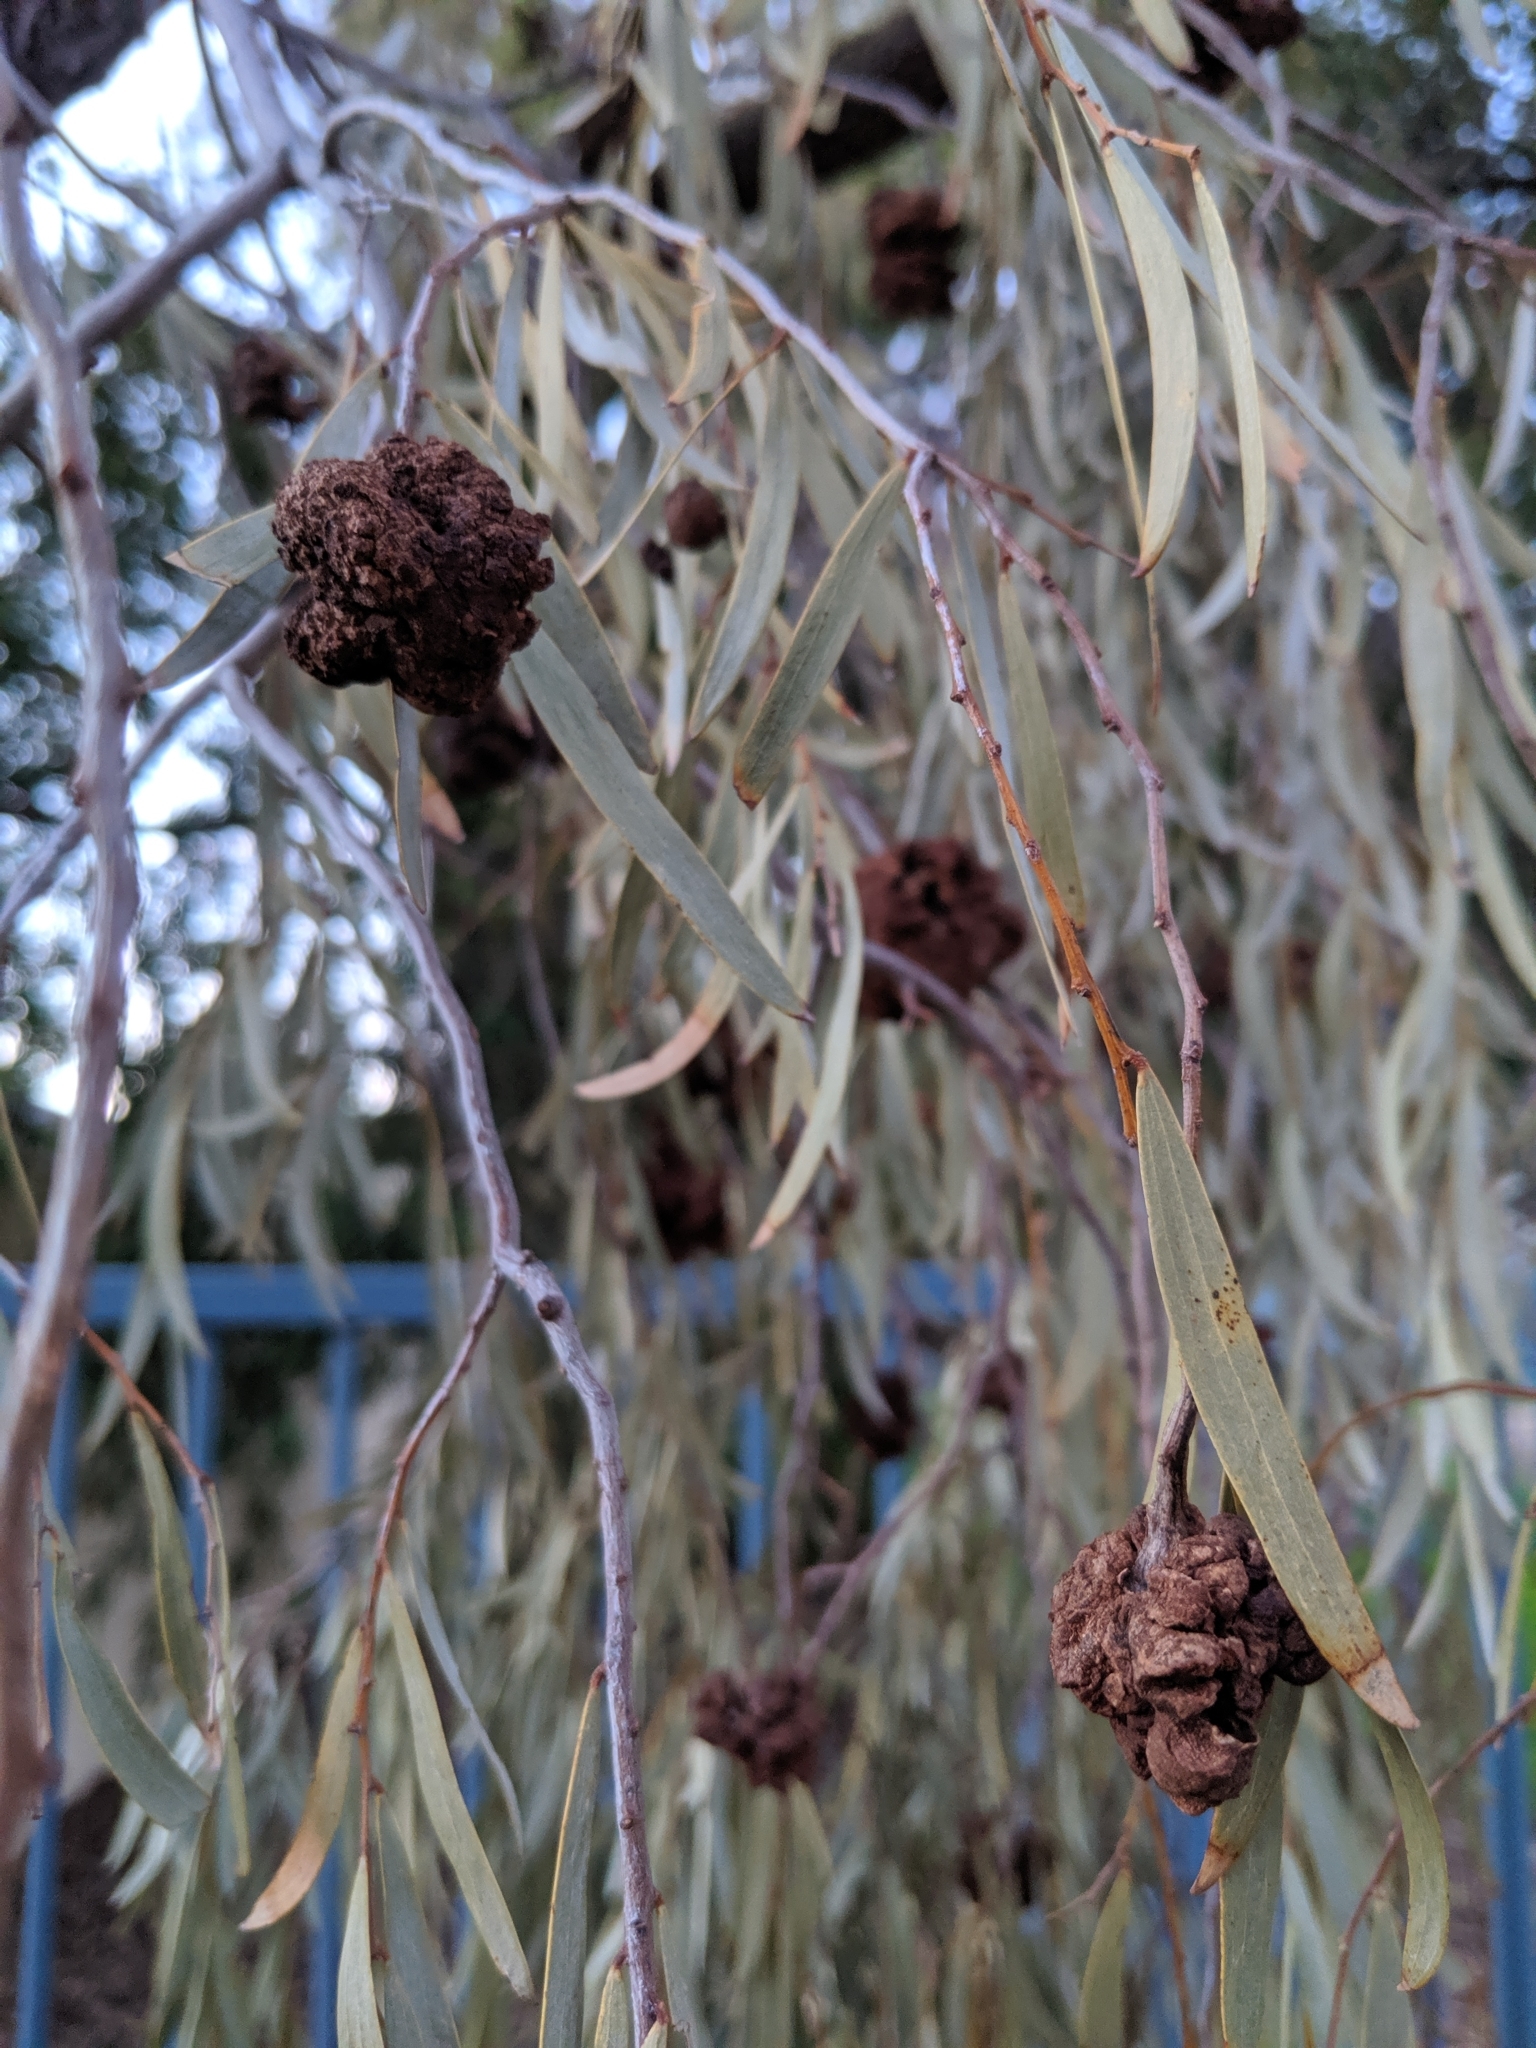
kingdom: Fungi
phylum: Basidiomycota
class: Pucciniomycetes
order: Pucciniales
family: Uromycladiaceae
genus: Uromycladium
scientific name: Uromycladium
